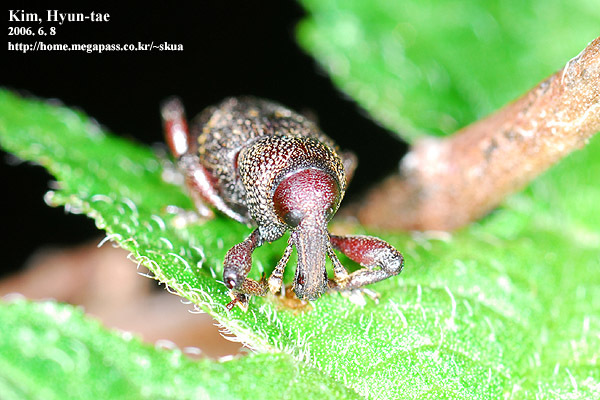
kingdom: Animalia
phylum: Arthropoda
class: Insecta
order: Coleoptera
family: Curculionidae
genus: Hylobius
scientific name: Hylobius haroldi
